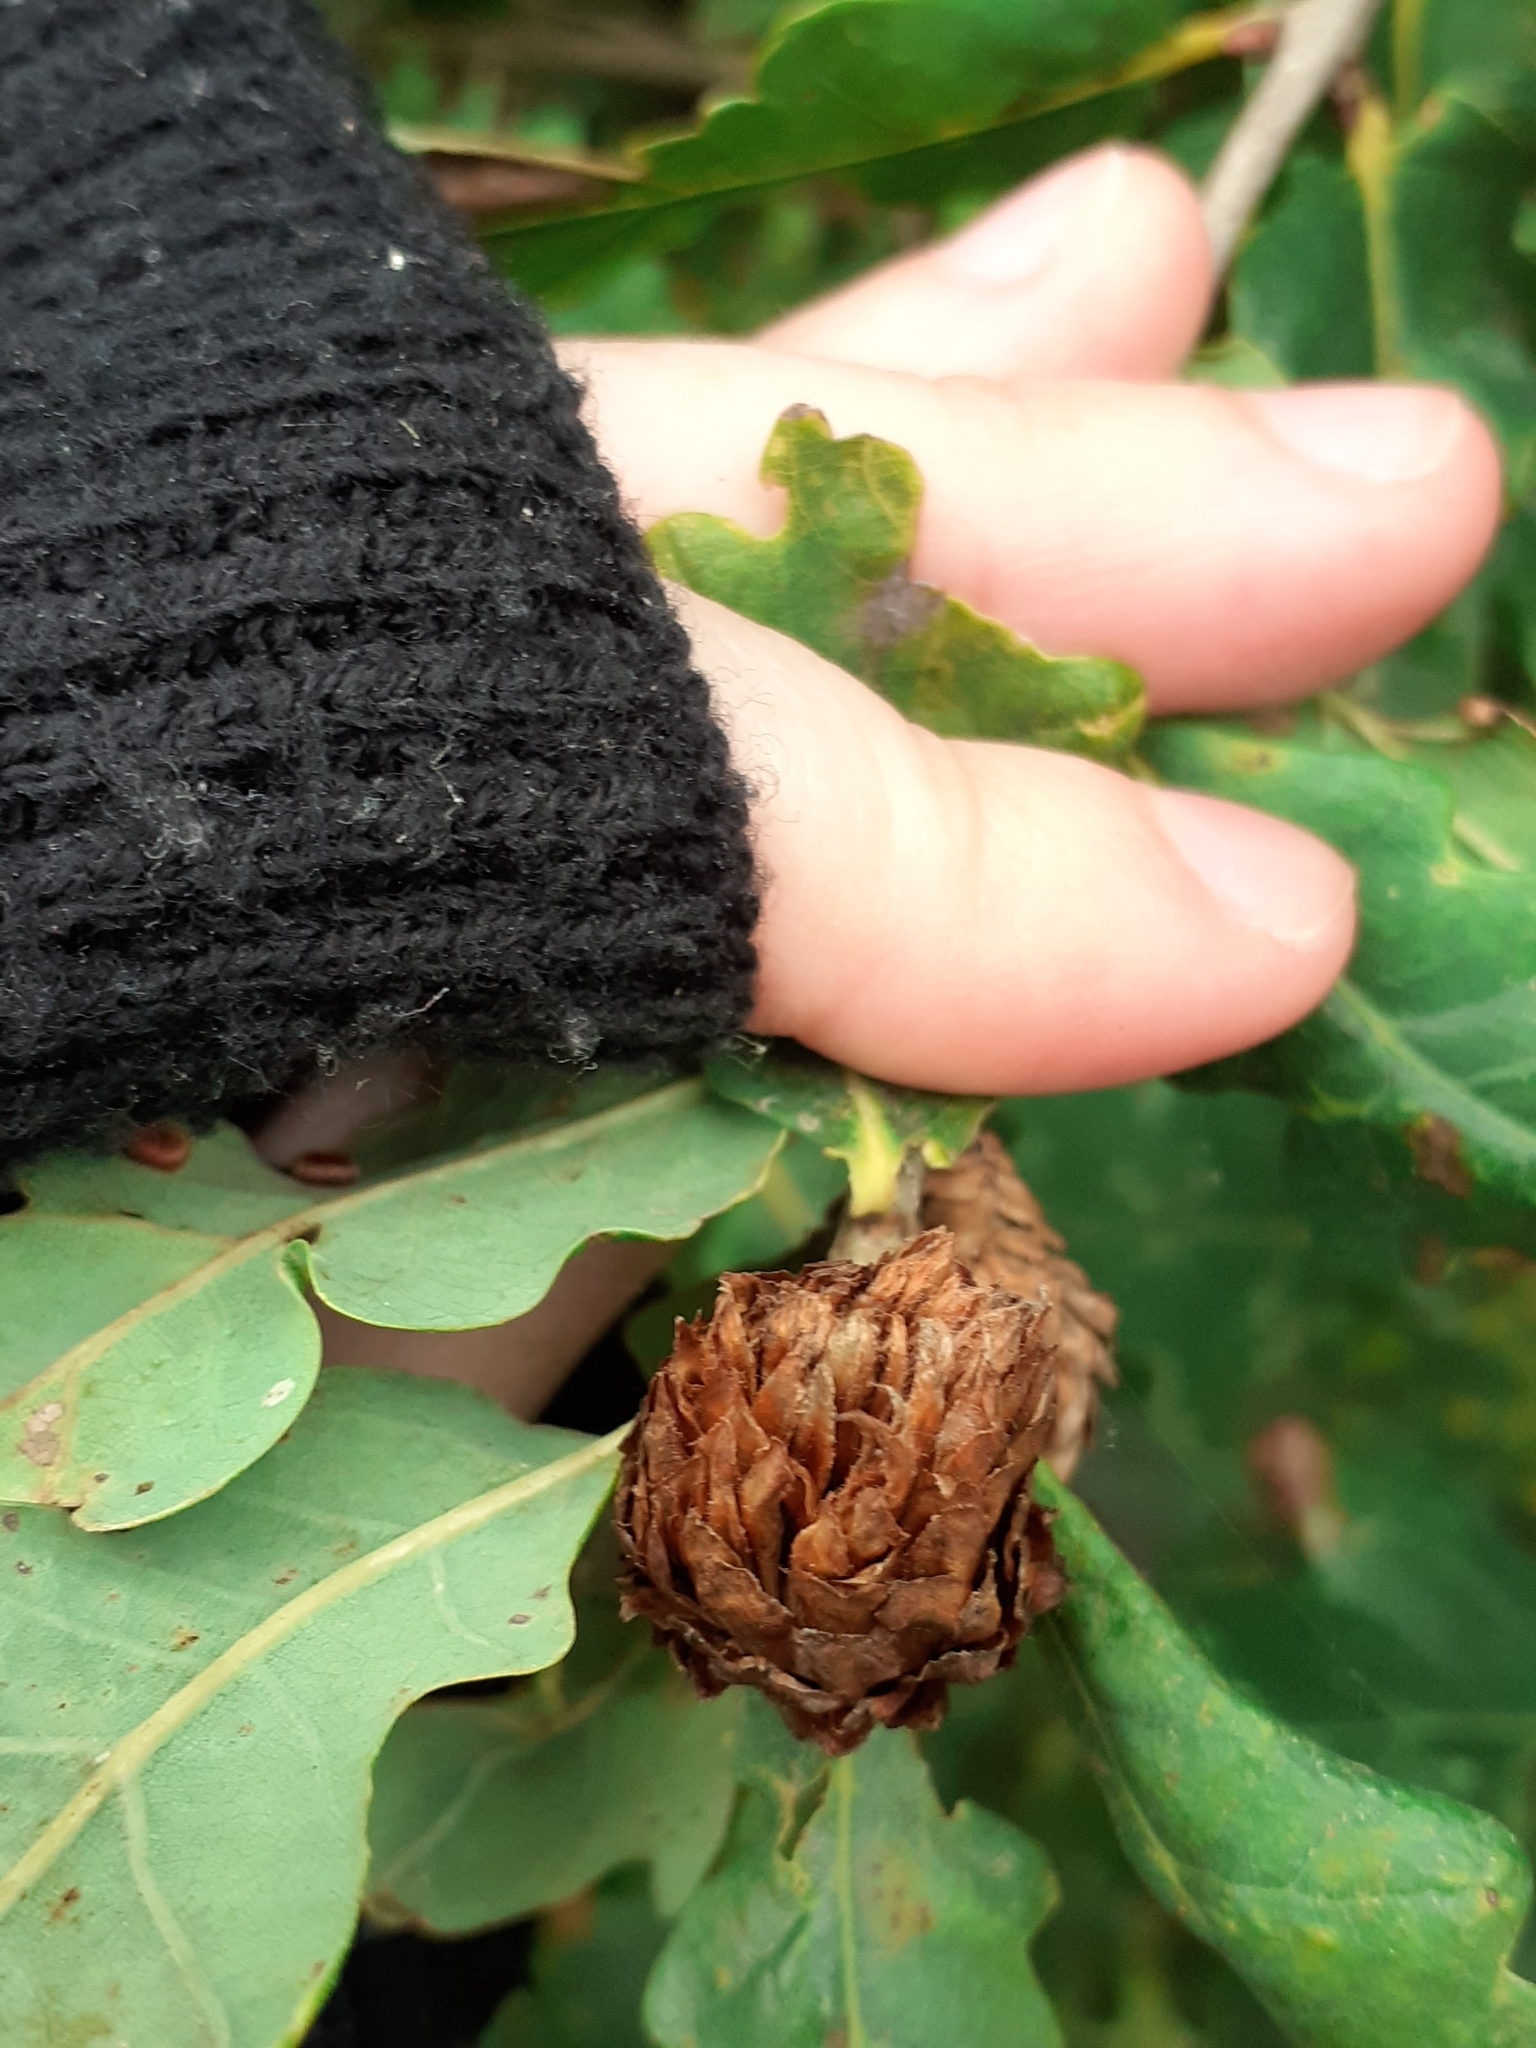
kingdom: Animalia
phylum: Arthropoda
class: Insecta
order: Hymenoptera
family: Cynipidae
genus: Andricus
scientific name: Andricus foecundatrix
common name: Artichoke gall
